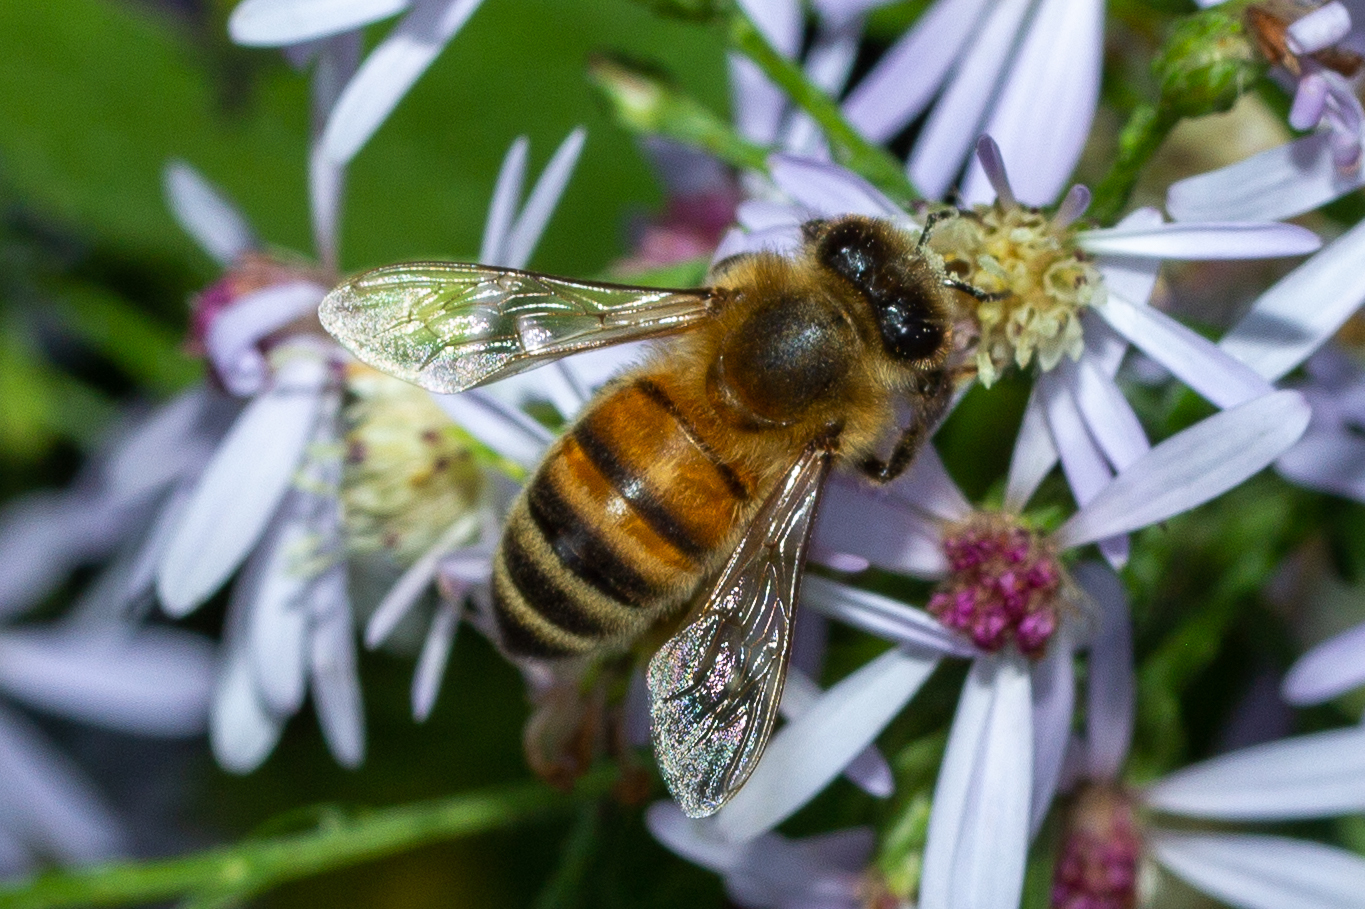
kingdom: Animalia
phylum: Arthropoda
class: Insecta
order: Hymenoptera
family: Apidae
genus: Apis
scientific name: Apis mellifera
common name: Honey bee
